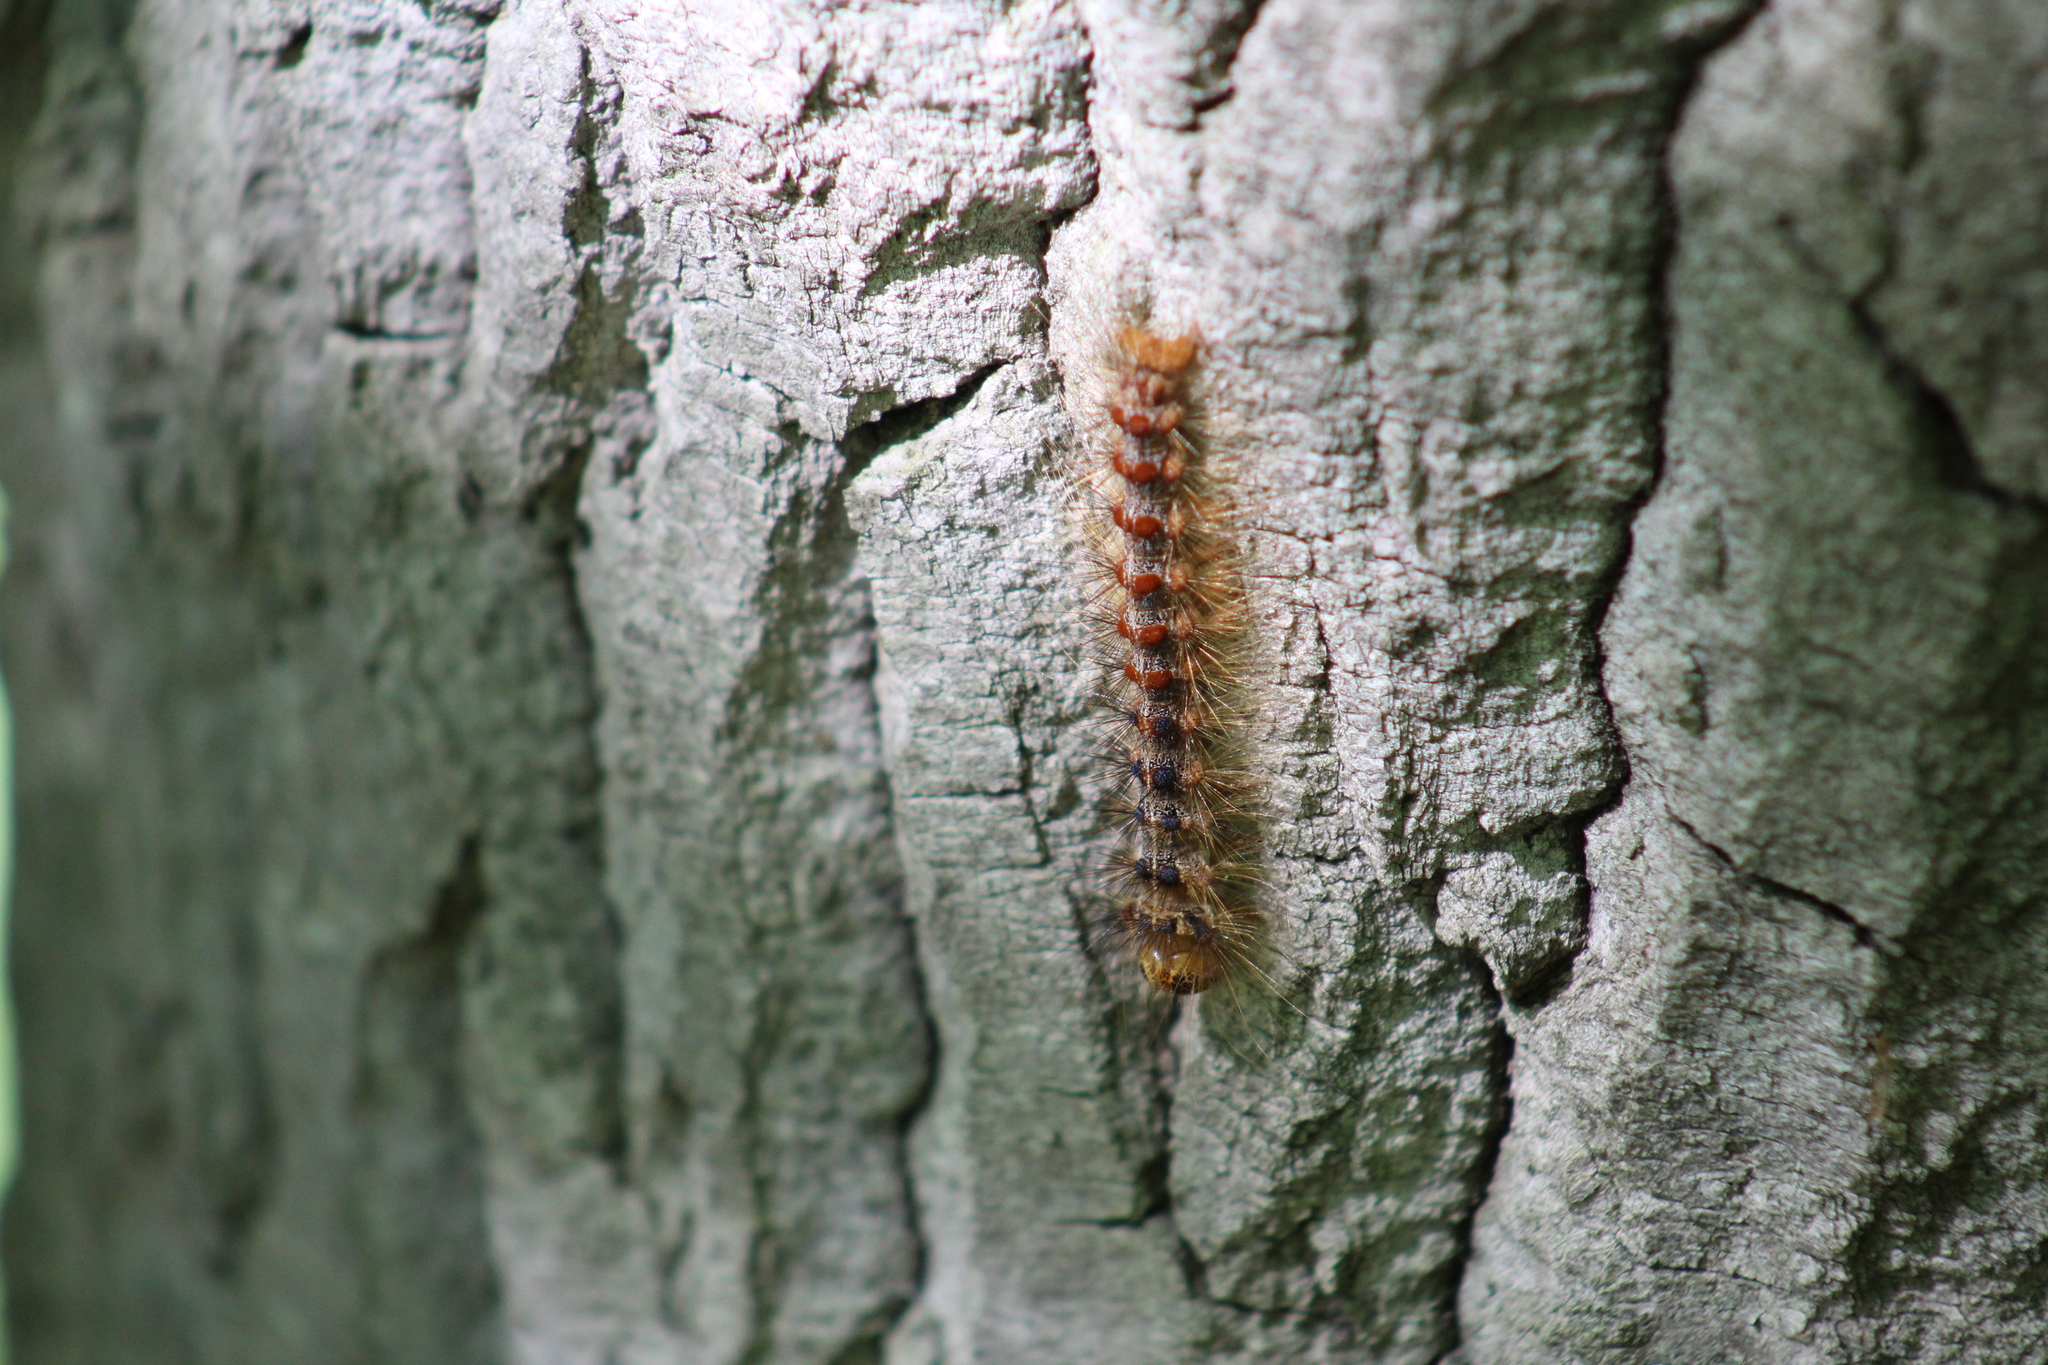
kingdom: Animalia
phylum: Arthropoda
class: Insecta
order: Lepidoptera
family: Erebidae
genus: Lymantria
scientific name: Lymantria dispar
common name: Gypsy moth
